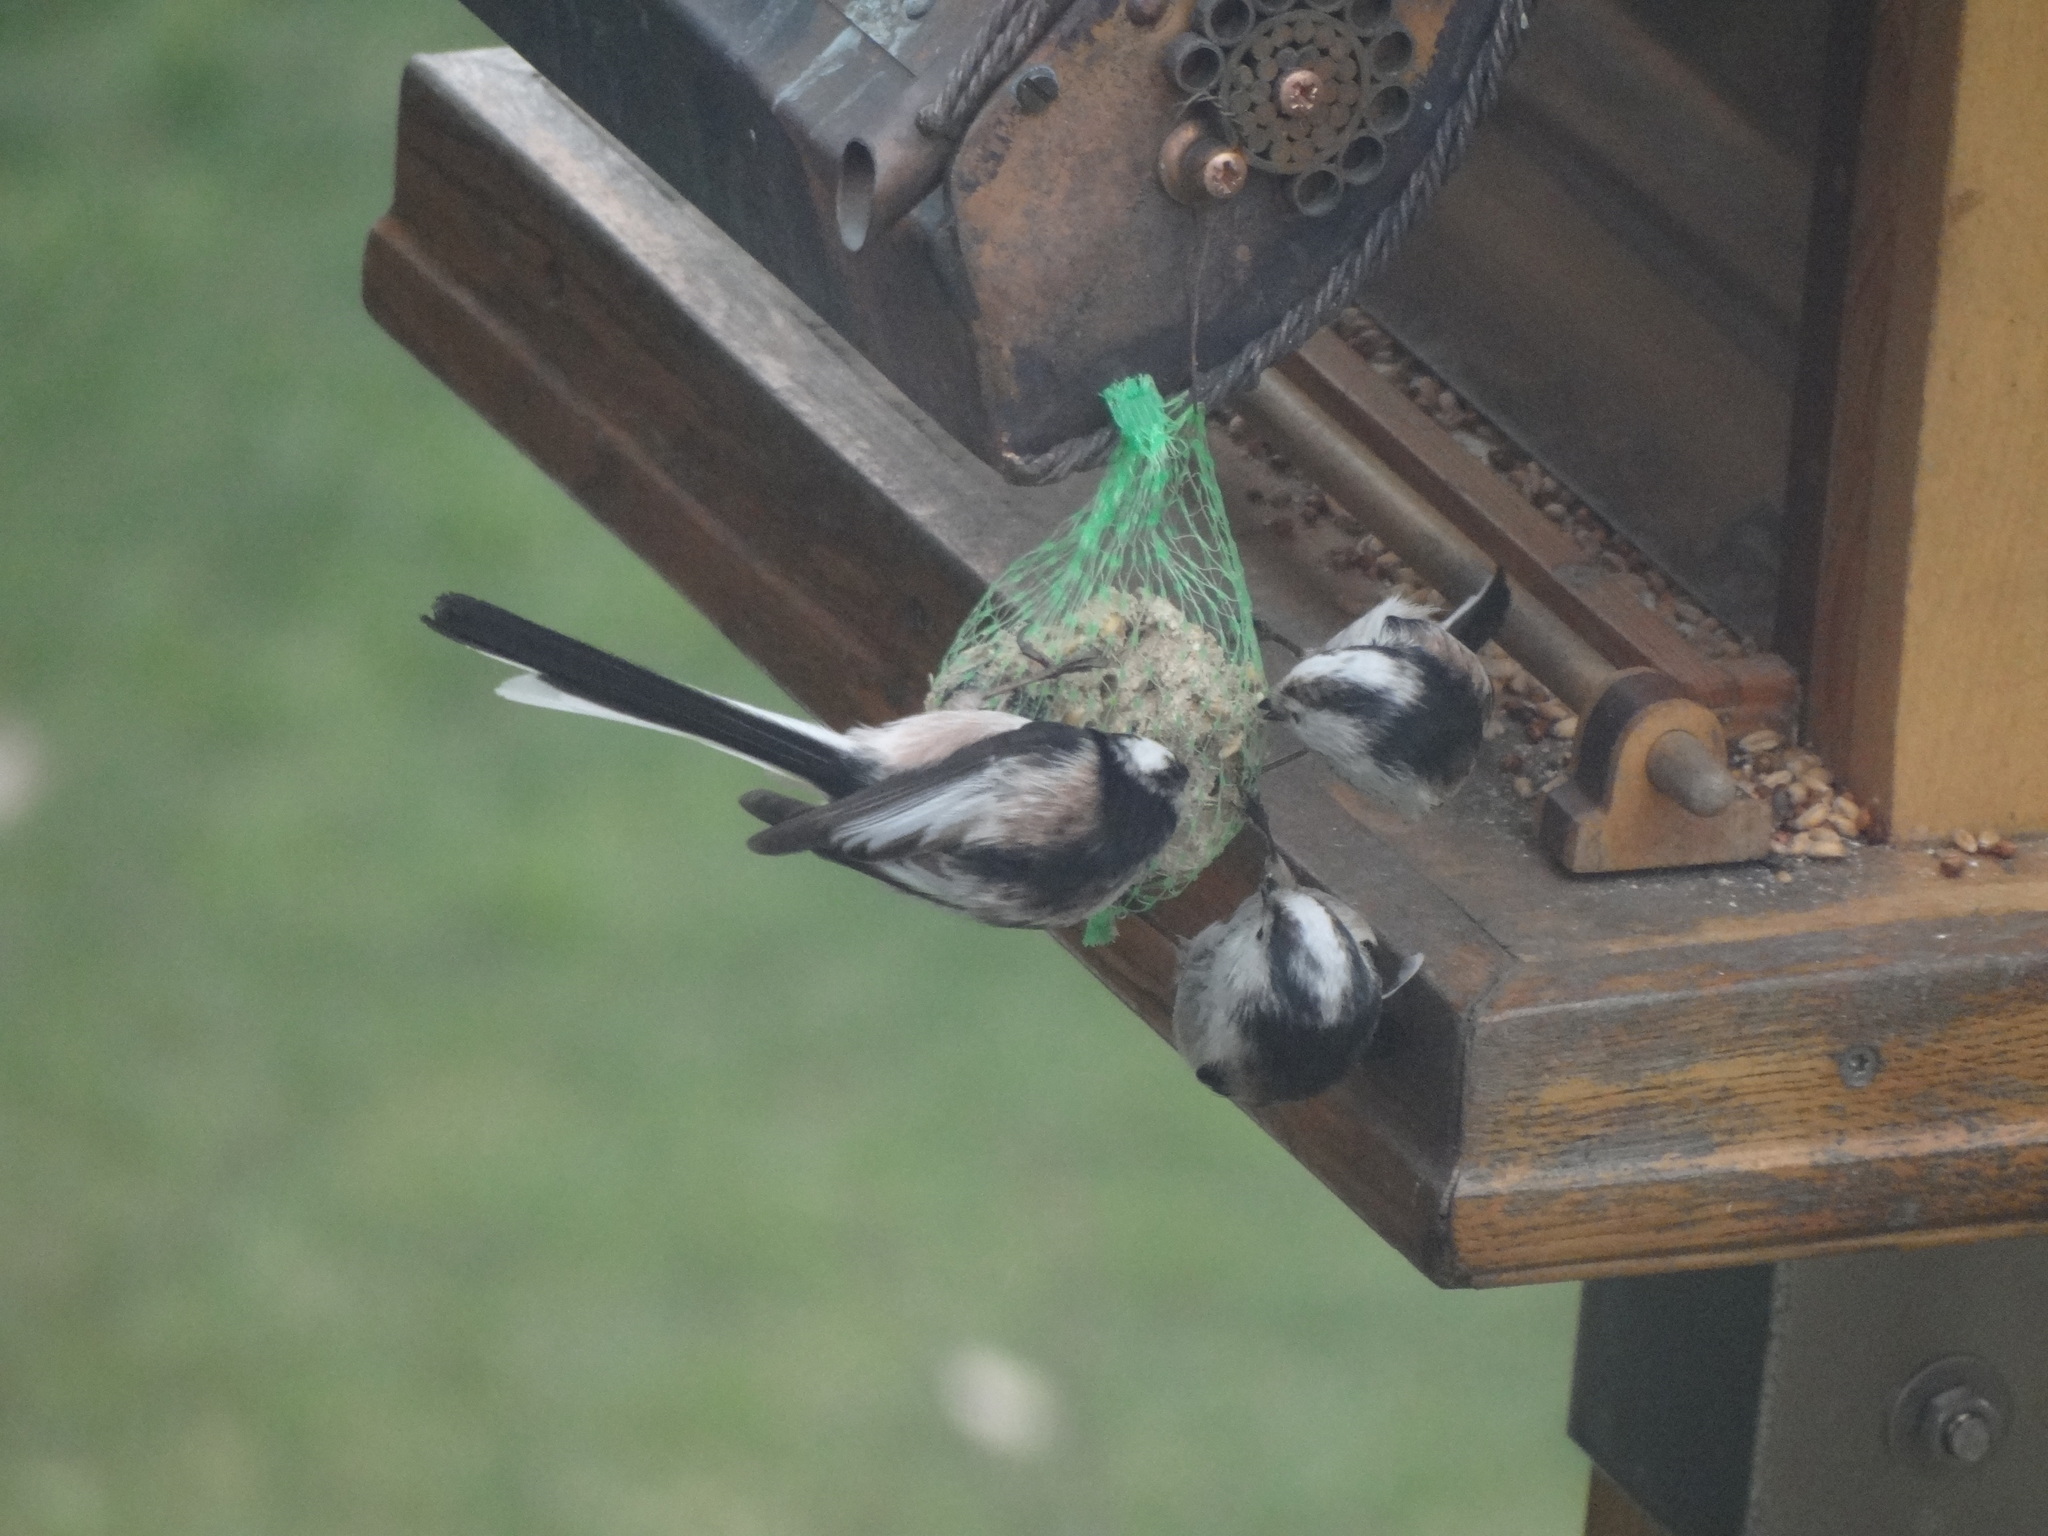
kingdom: Animalia
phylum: Chordata
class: Aves
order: Passeriformes
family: Aegithalidae
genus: Aegithalos
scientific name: Aegithalos caudatus
